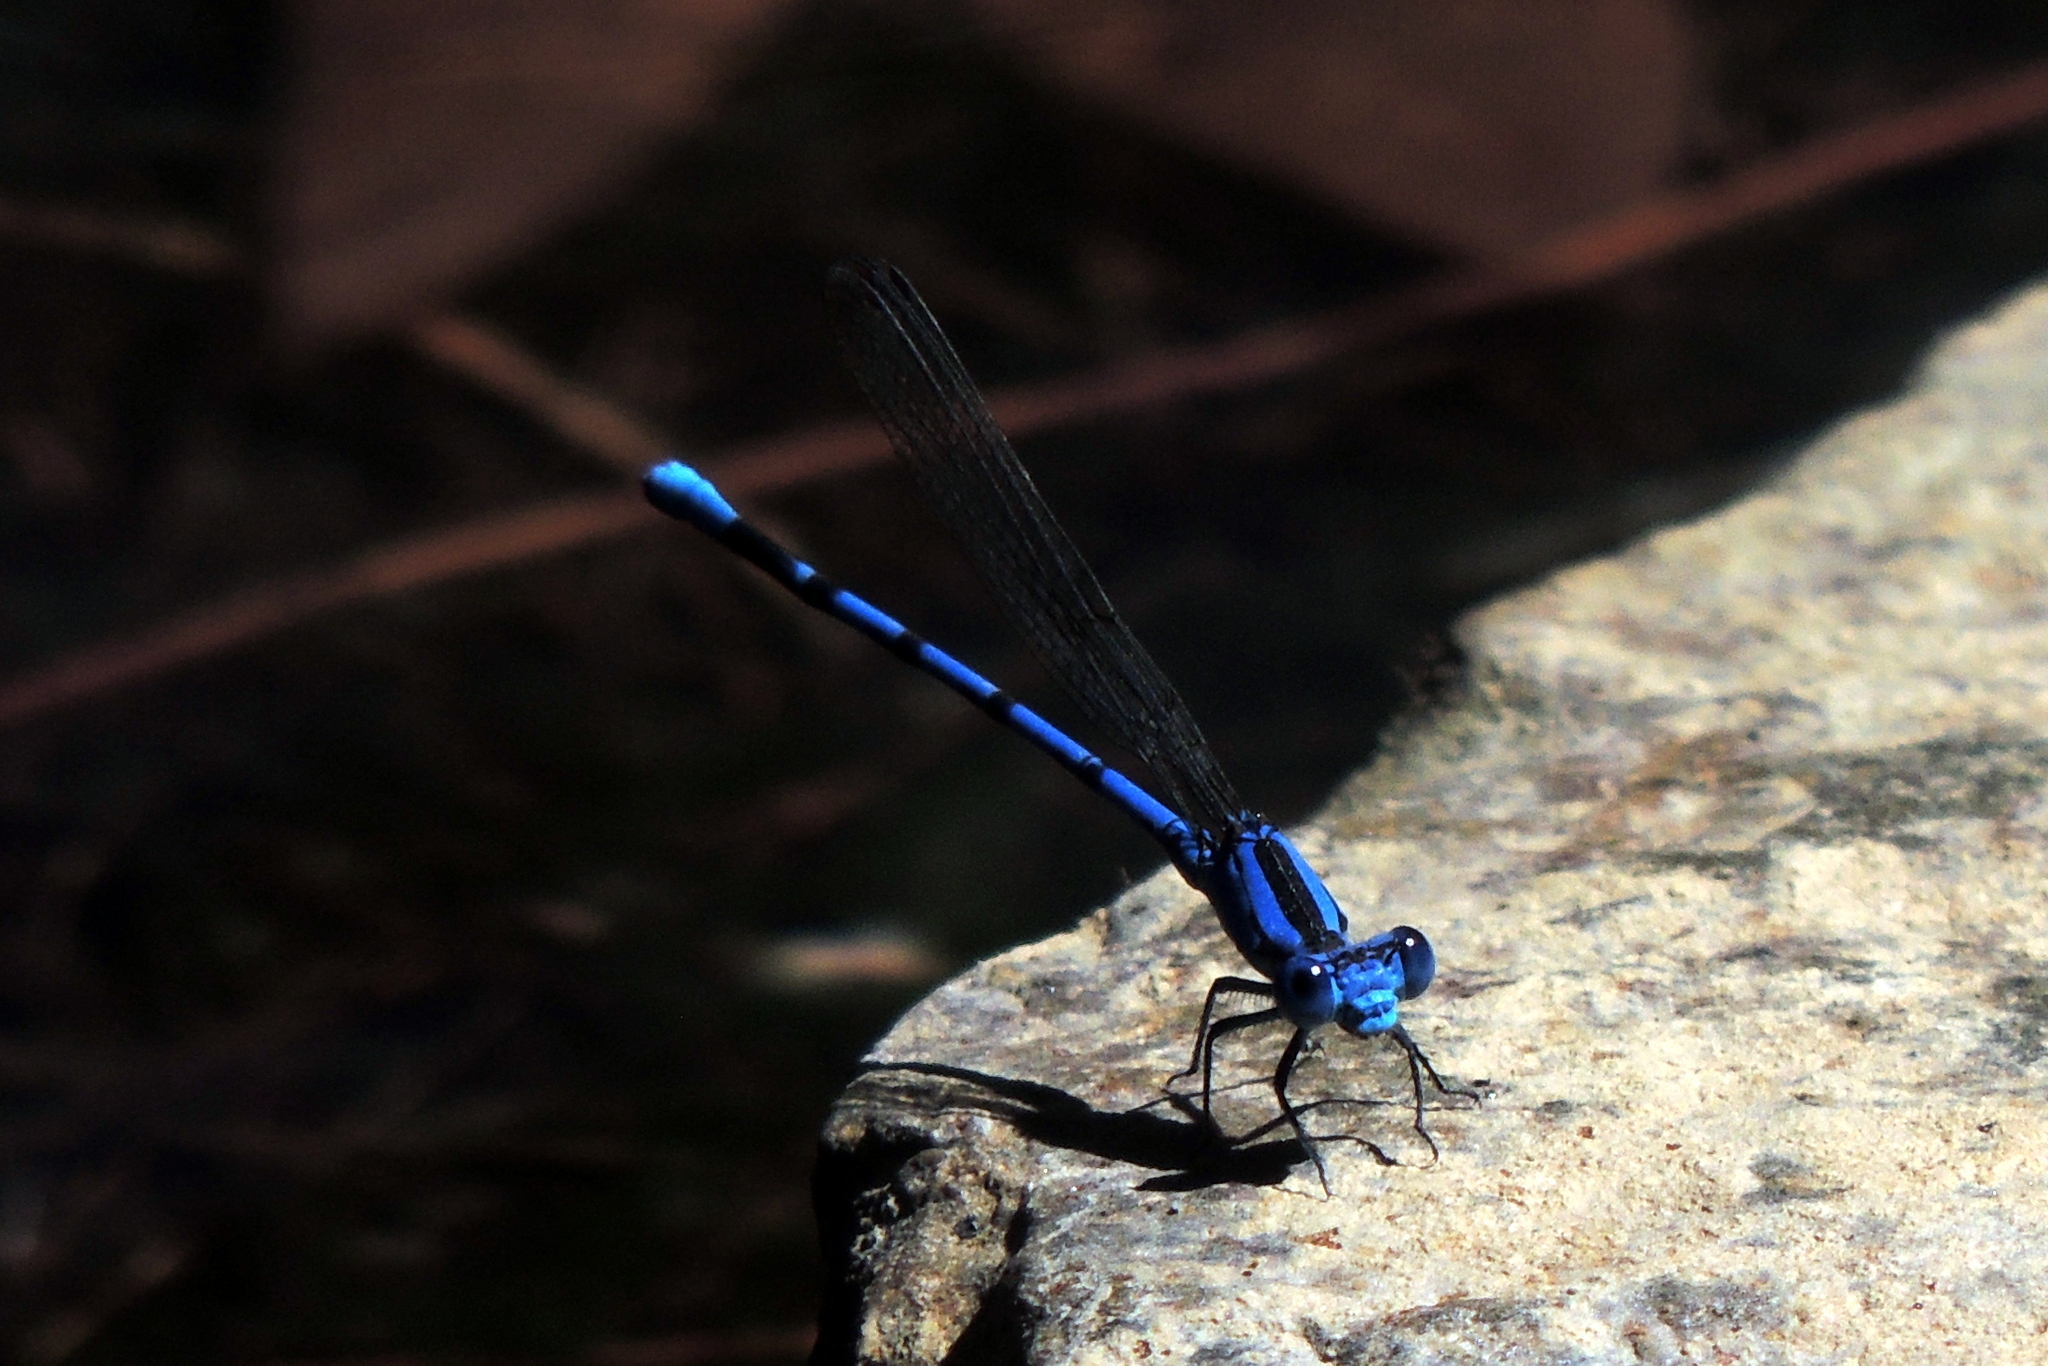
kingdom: Animalia
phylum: Arthropoda
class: Insecta
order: Odonata
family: Coenagrionidae
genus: Argia
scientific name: Argia vivida
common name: Vivid dancer
